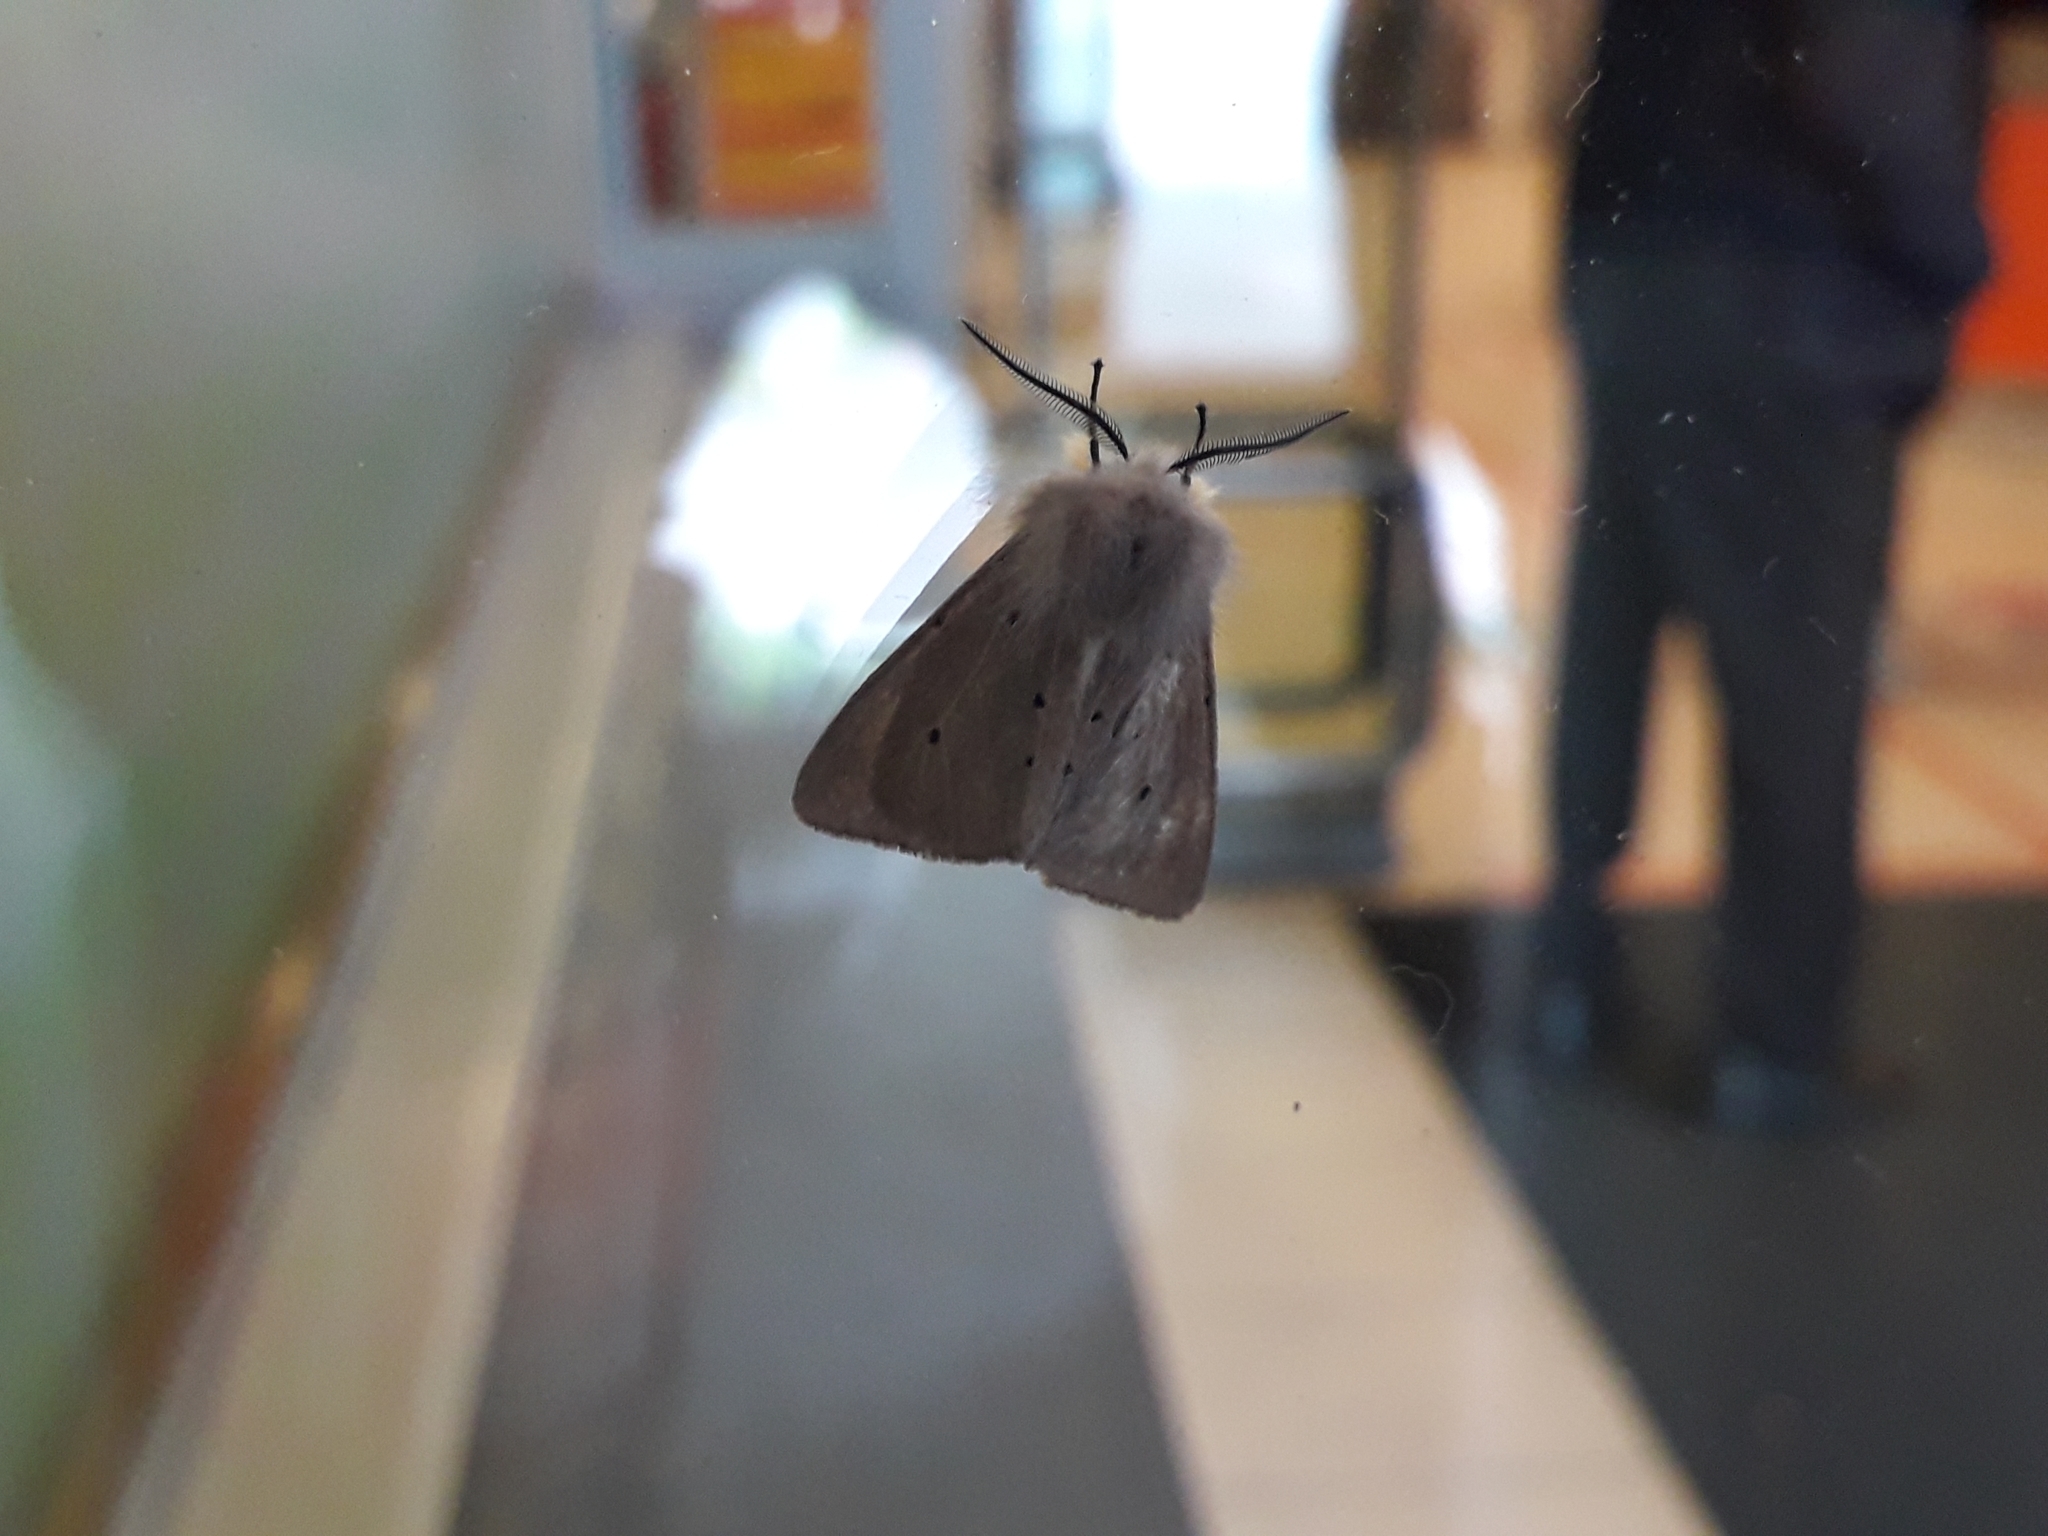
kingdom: Animalia
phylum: Arthropoda
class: Insecta
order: Lepidoptera
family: Erebidae
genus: Diaphora
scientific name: Diaphora mendica
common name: Muslin moth
